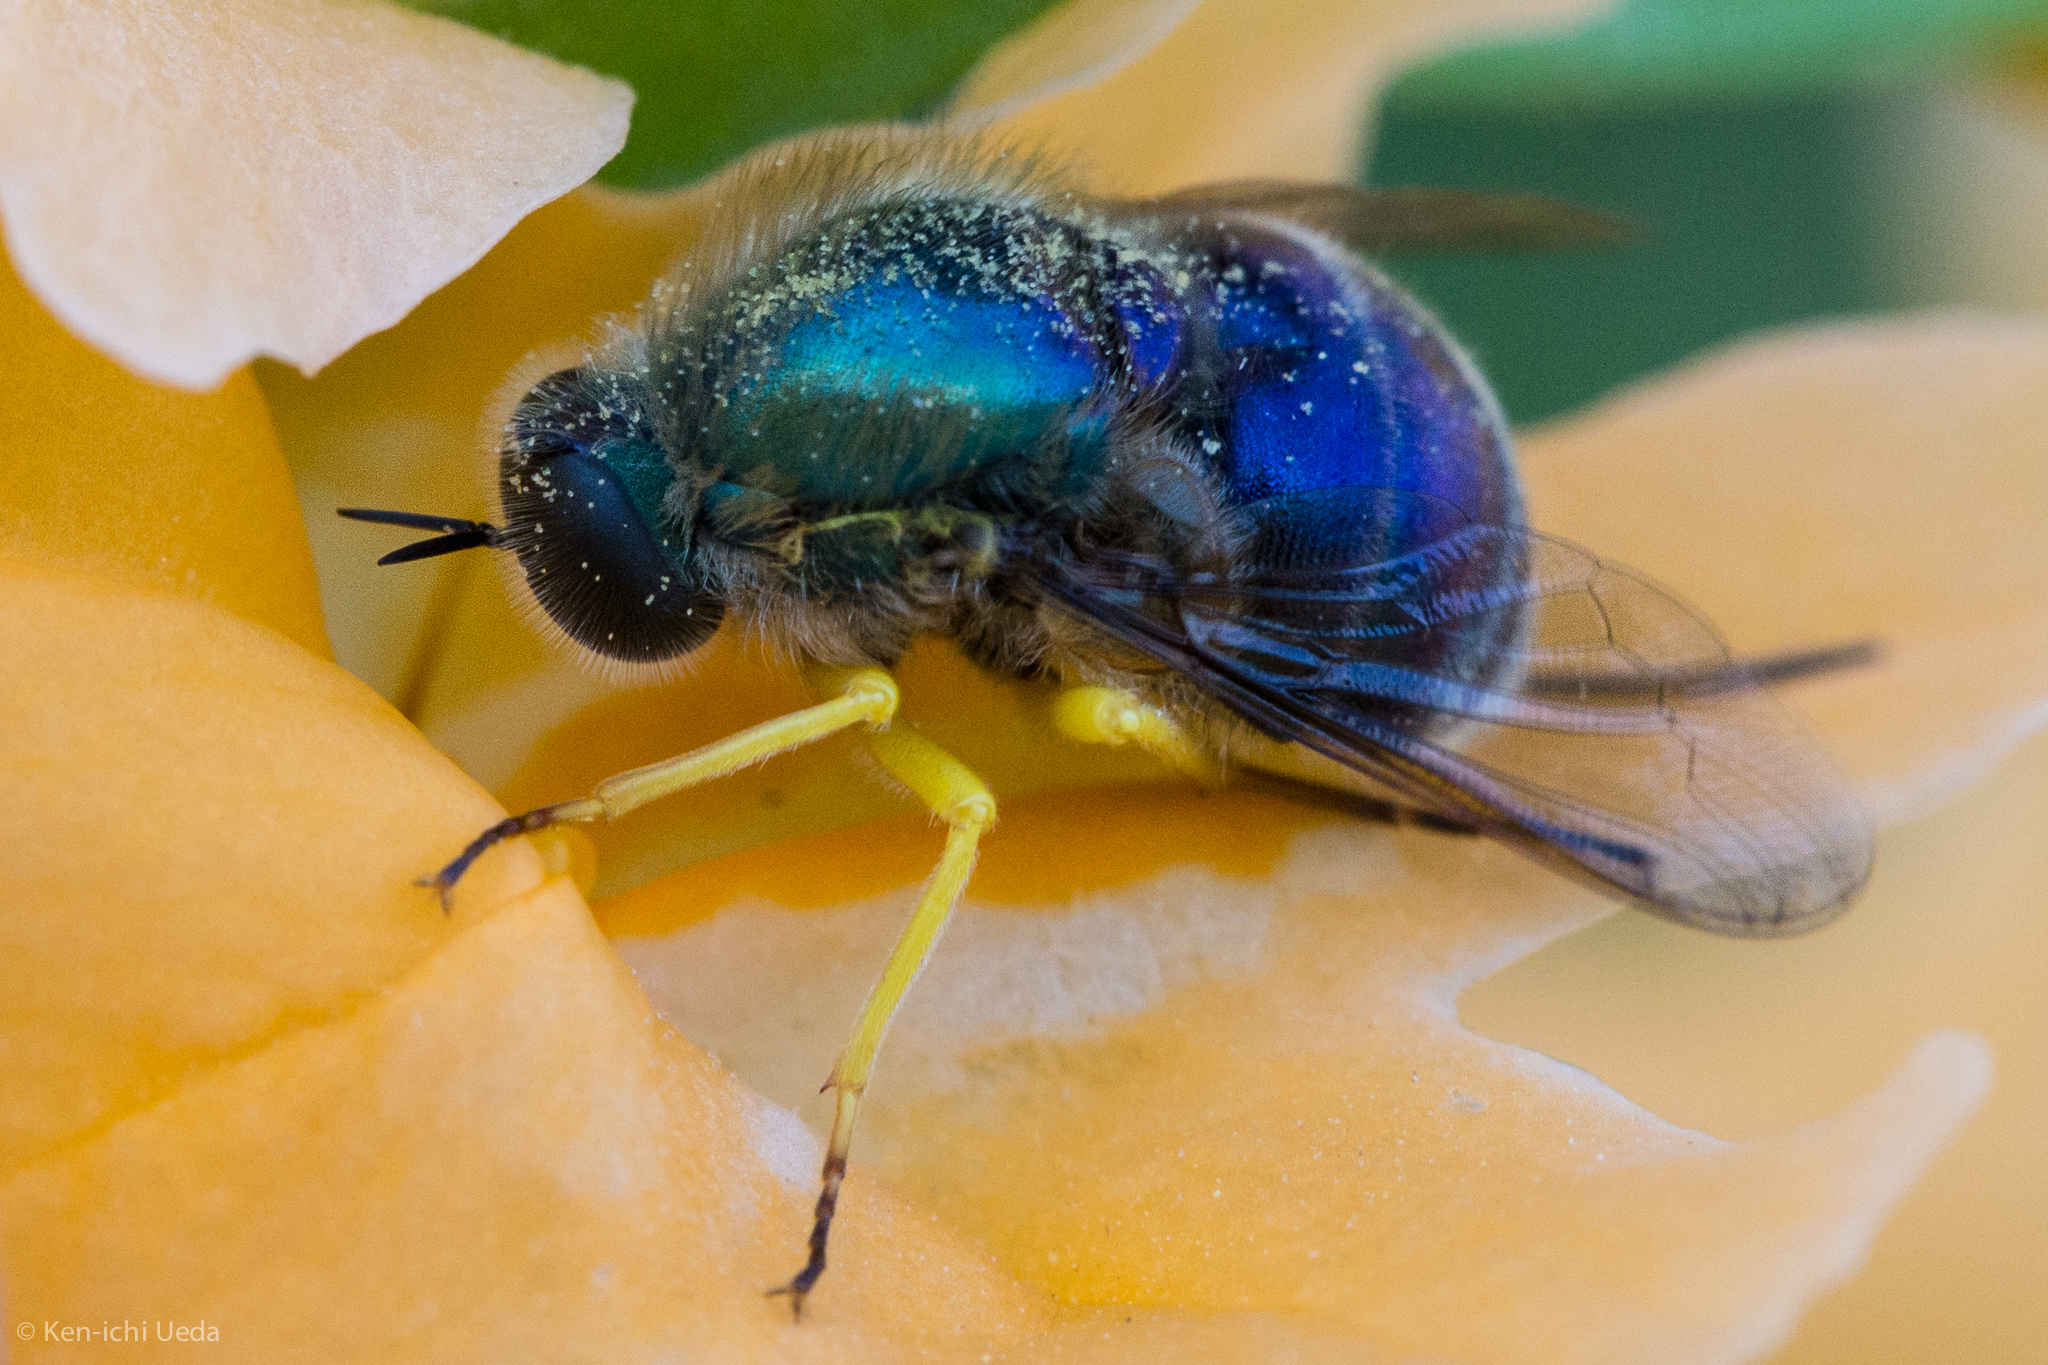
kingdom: Animalia
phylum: Arthropoda
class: Insecta
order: Diptera
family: Acroceridae
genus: Eulonchus
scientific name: Eulonchus smaragdinus
